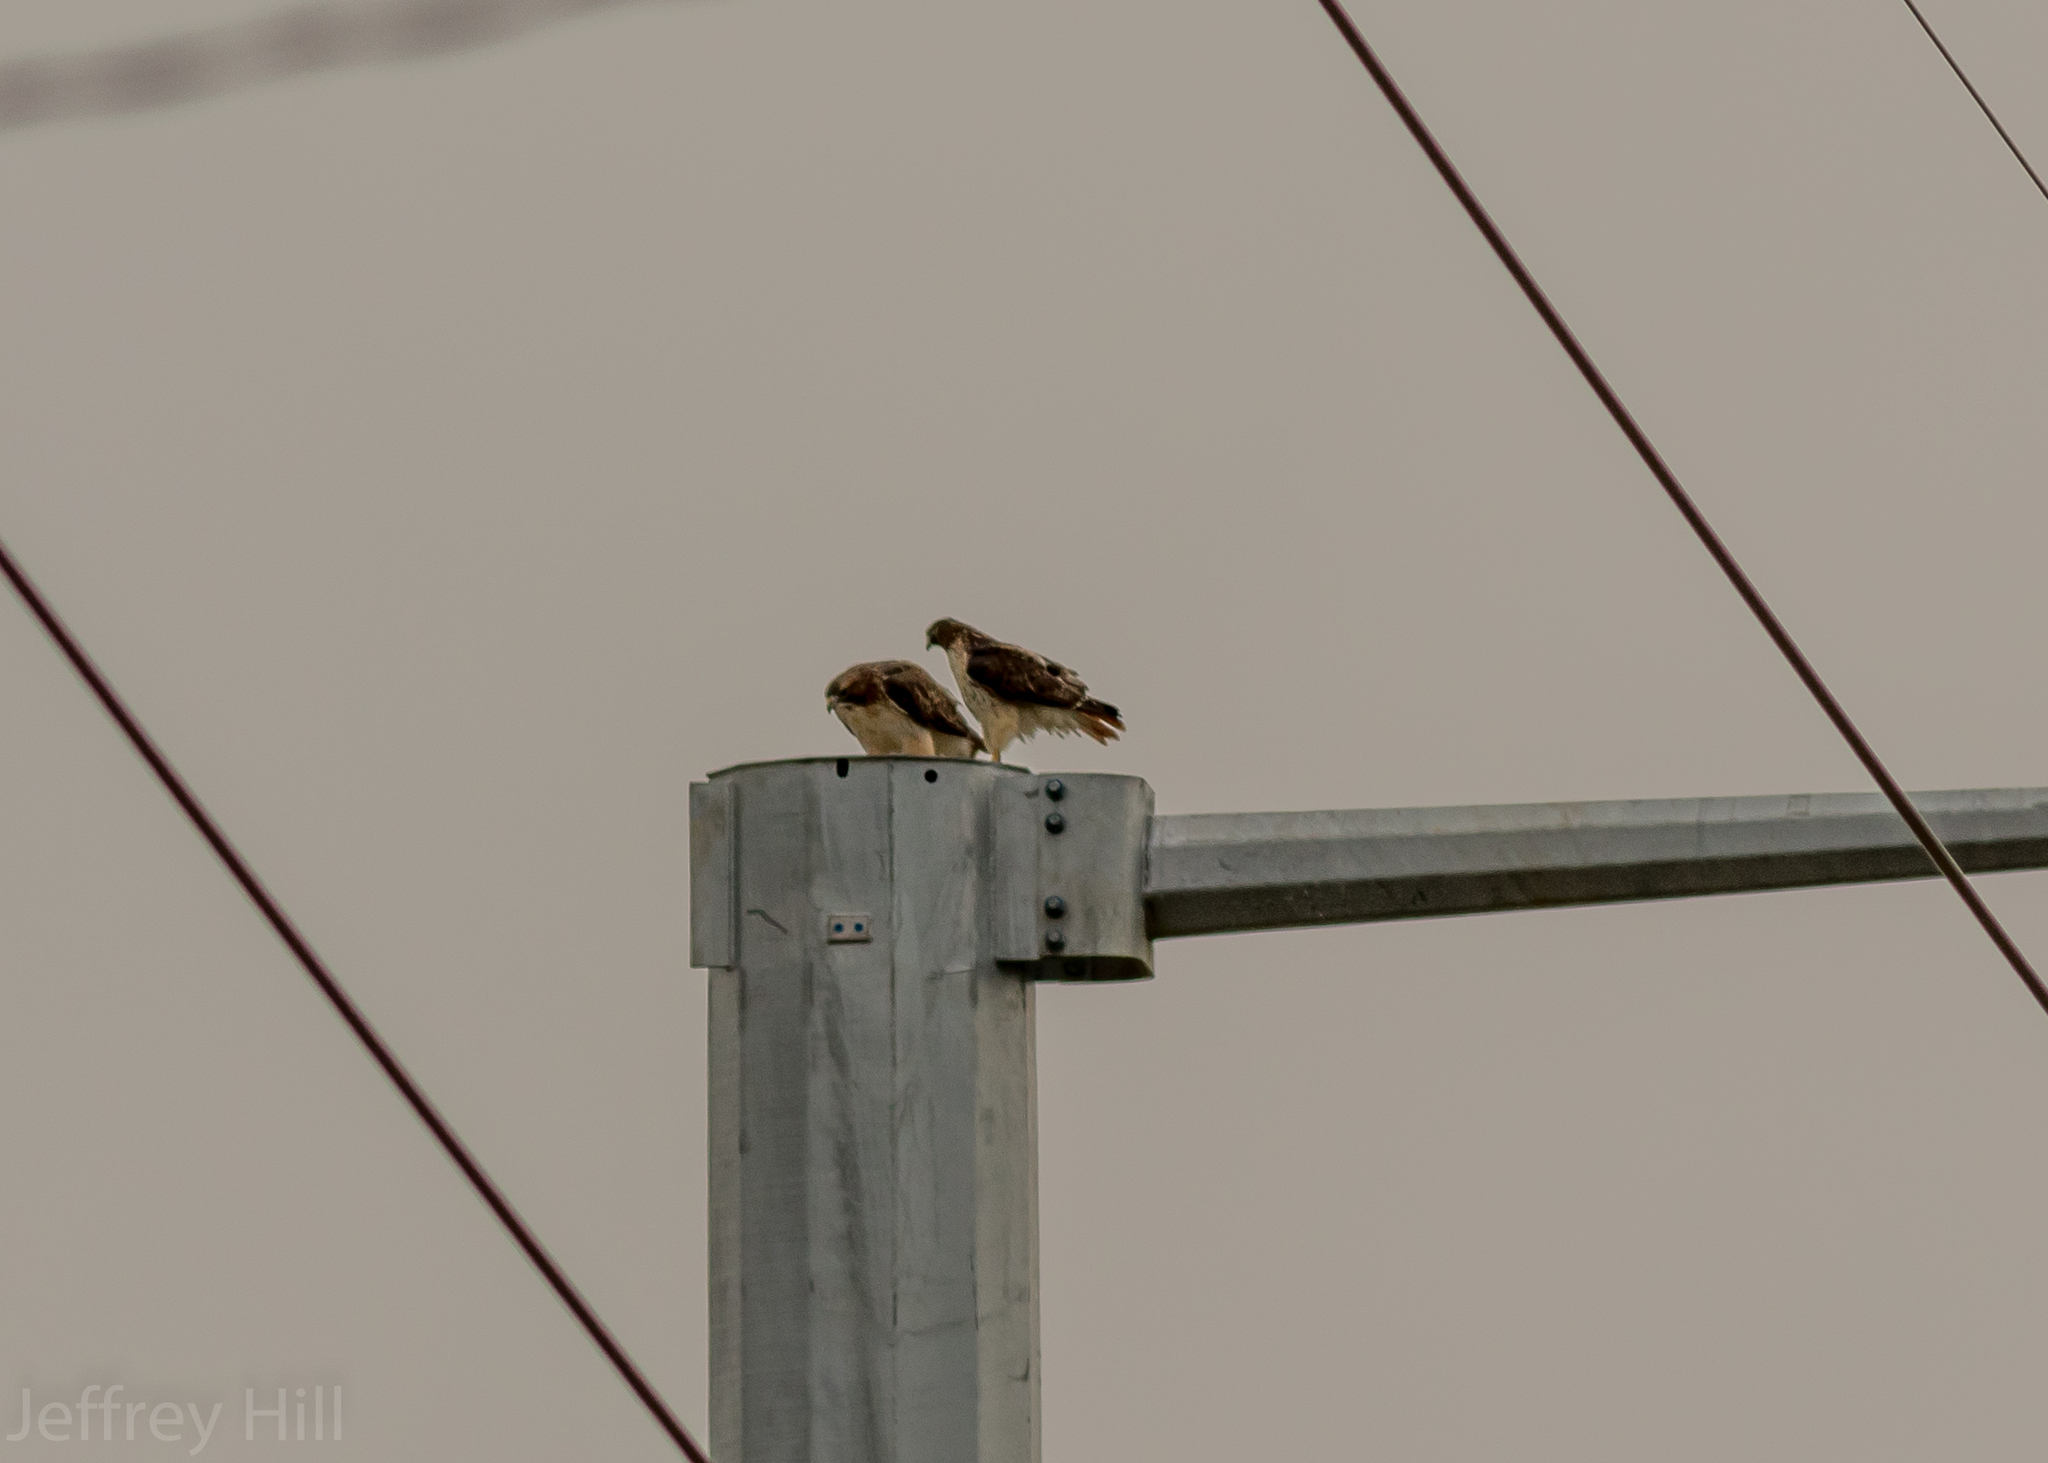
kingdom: Animalia
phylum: Chordata
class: Aves
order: Accipitriformes
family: Accipitridae
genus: Buteo
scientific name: Buteo jamaicensis
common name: Red-tailed hawk
